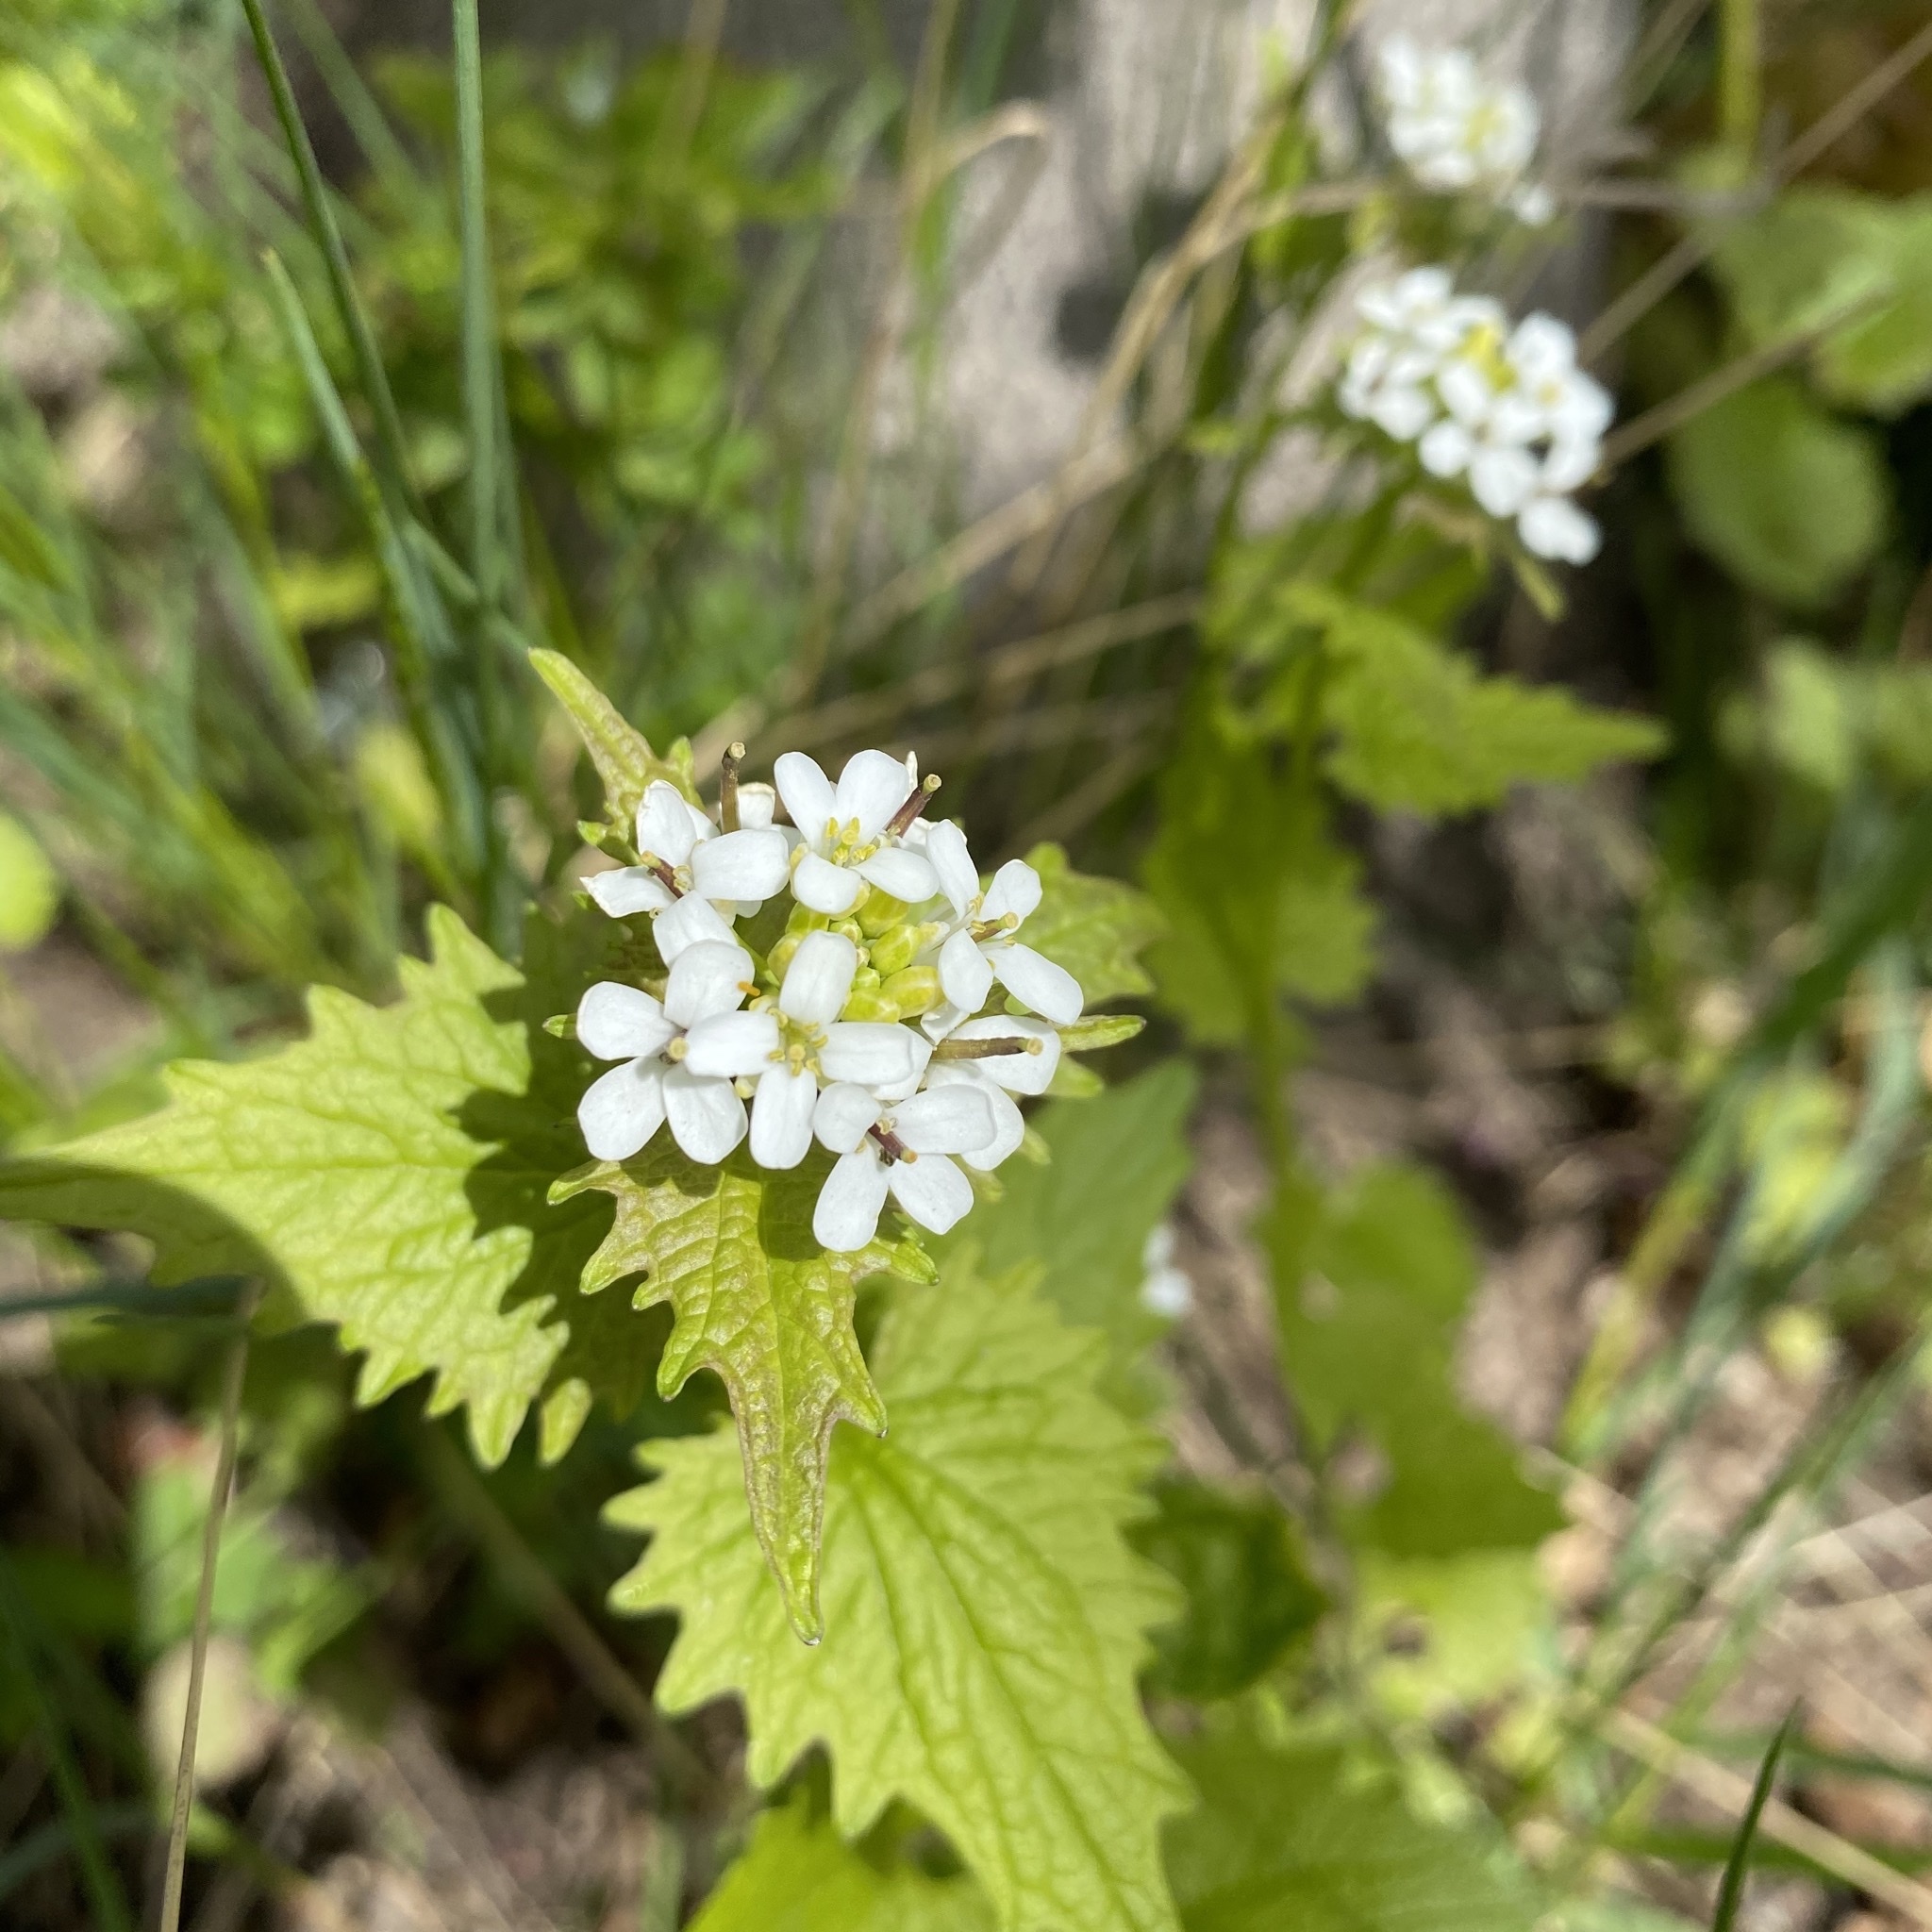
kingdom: Plantae
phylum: Tracheophyta
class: Magnoliopsida
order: Brassicales
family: Brassicaceae
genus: Alliaria
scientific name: Alliaria petiolata
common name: Garlic mustard
